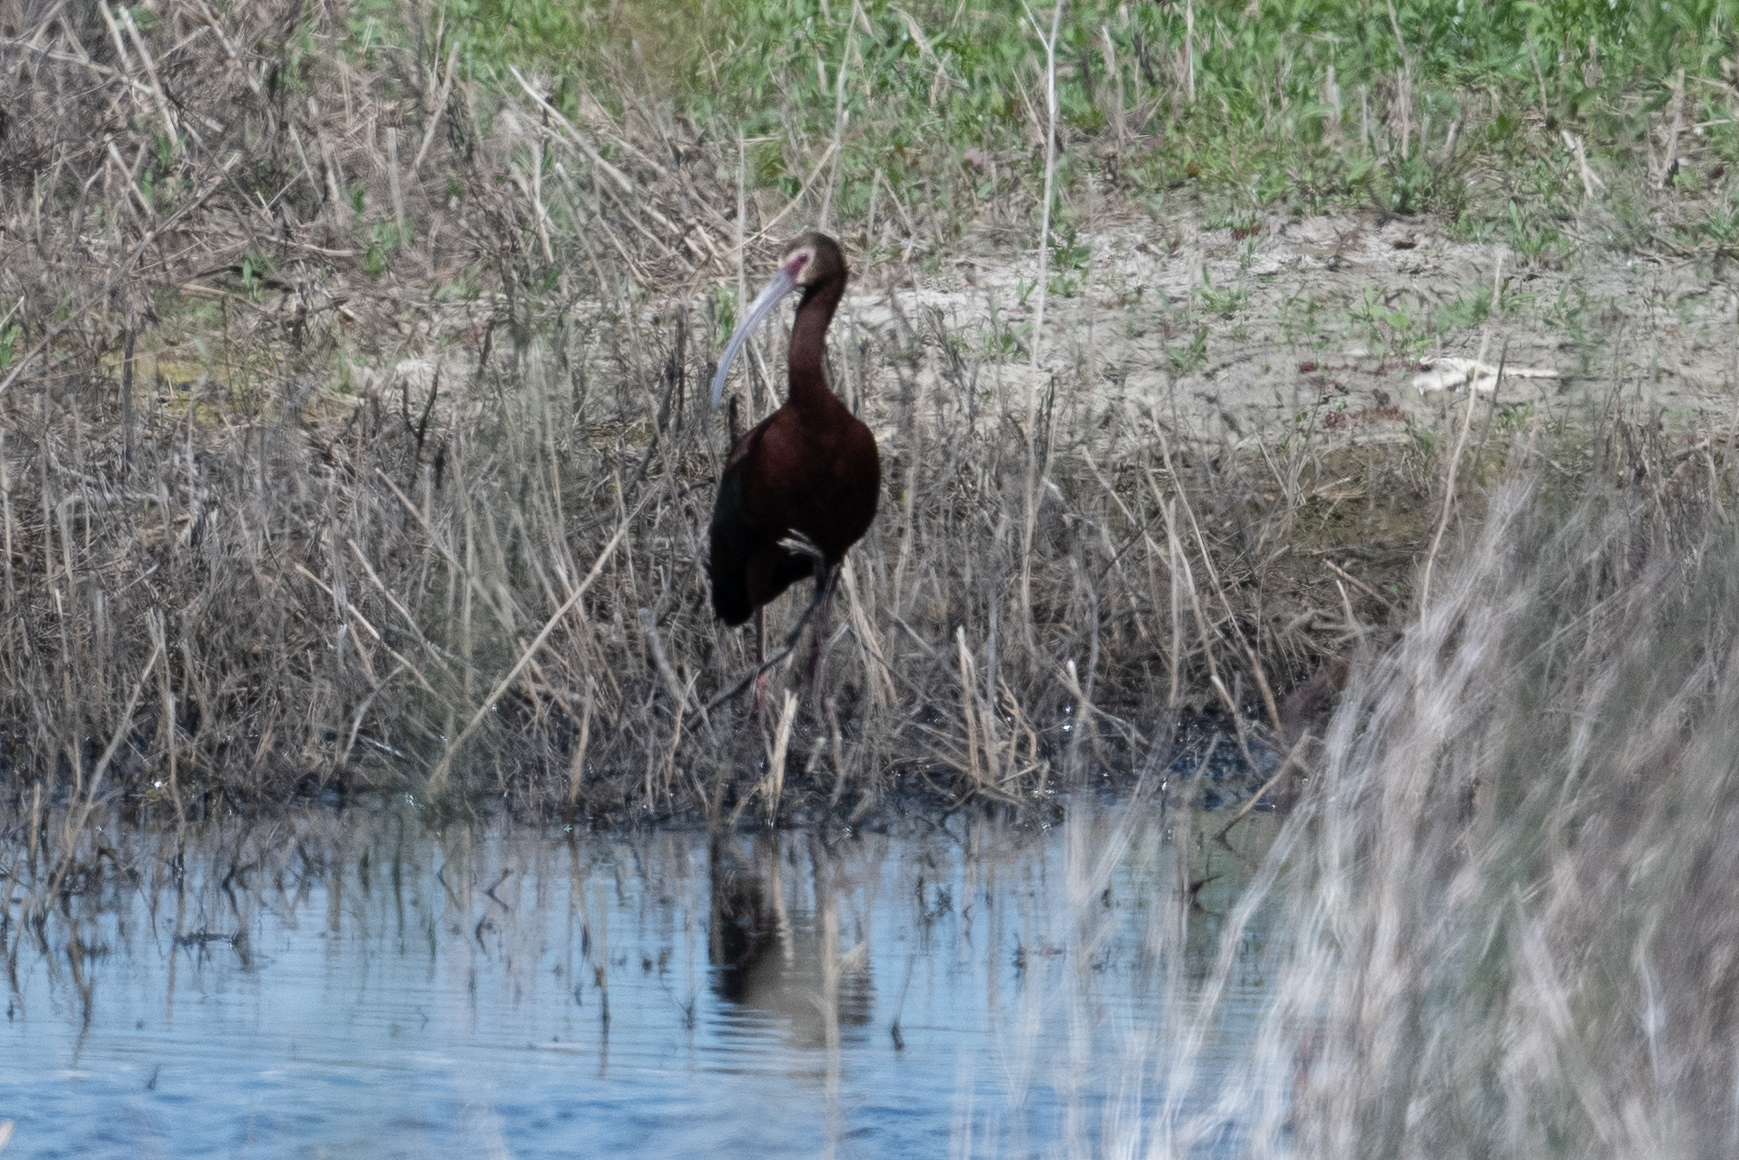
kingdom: Animalia
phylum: Chordata
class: Aves
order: Pelecaniformes
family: Threskiornithidae
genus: Plegadis
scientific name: Plegadis chihi
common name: White-faced ibis
